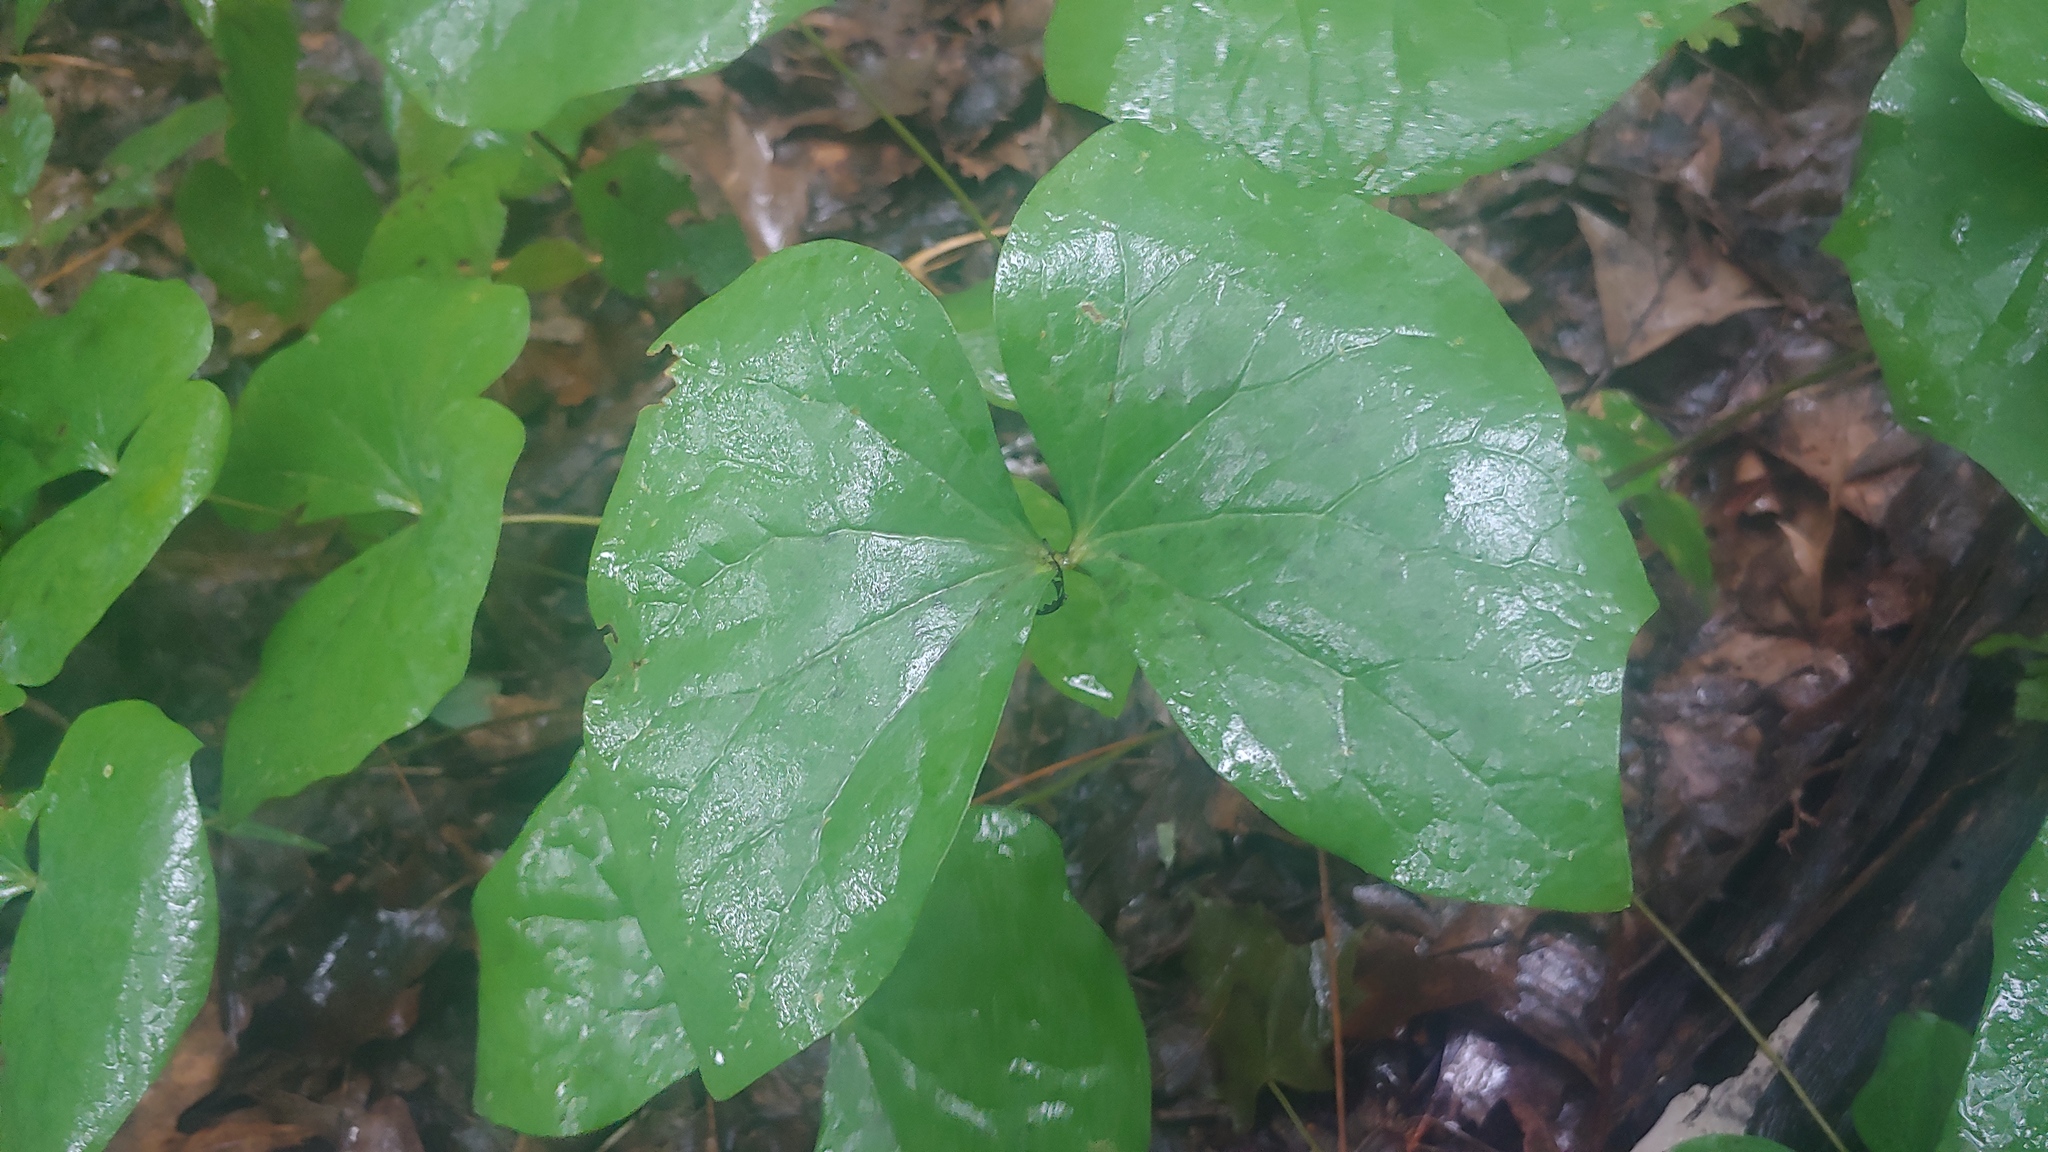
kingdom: Plantae
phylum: Tracheophyta
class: Magnoliopsida
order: Ranunculales
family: Berberidaceae
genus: Jeffersonia
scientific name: Jeffersonia diphylla
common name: Rheumatism-root
